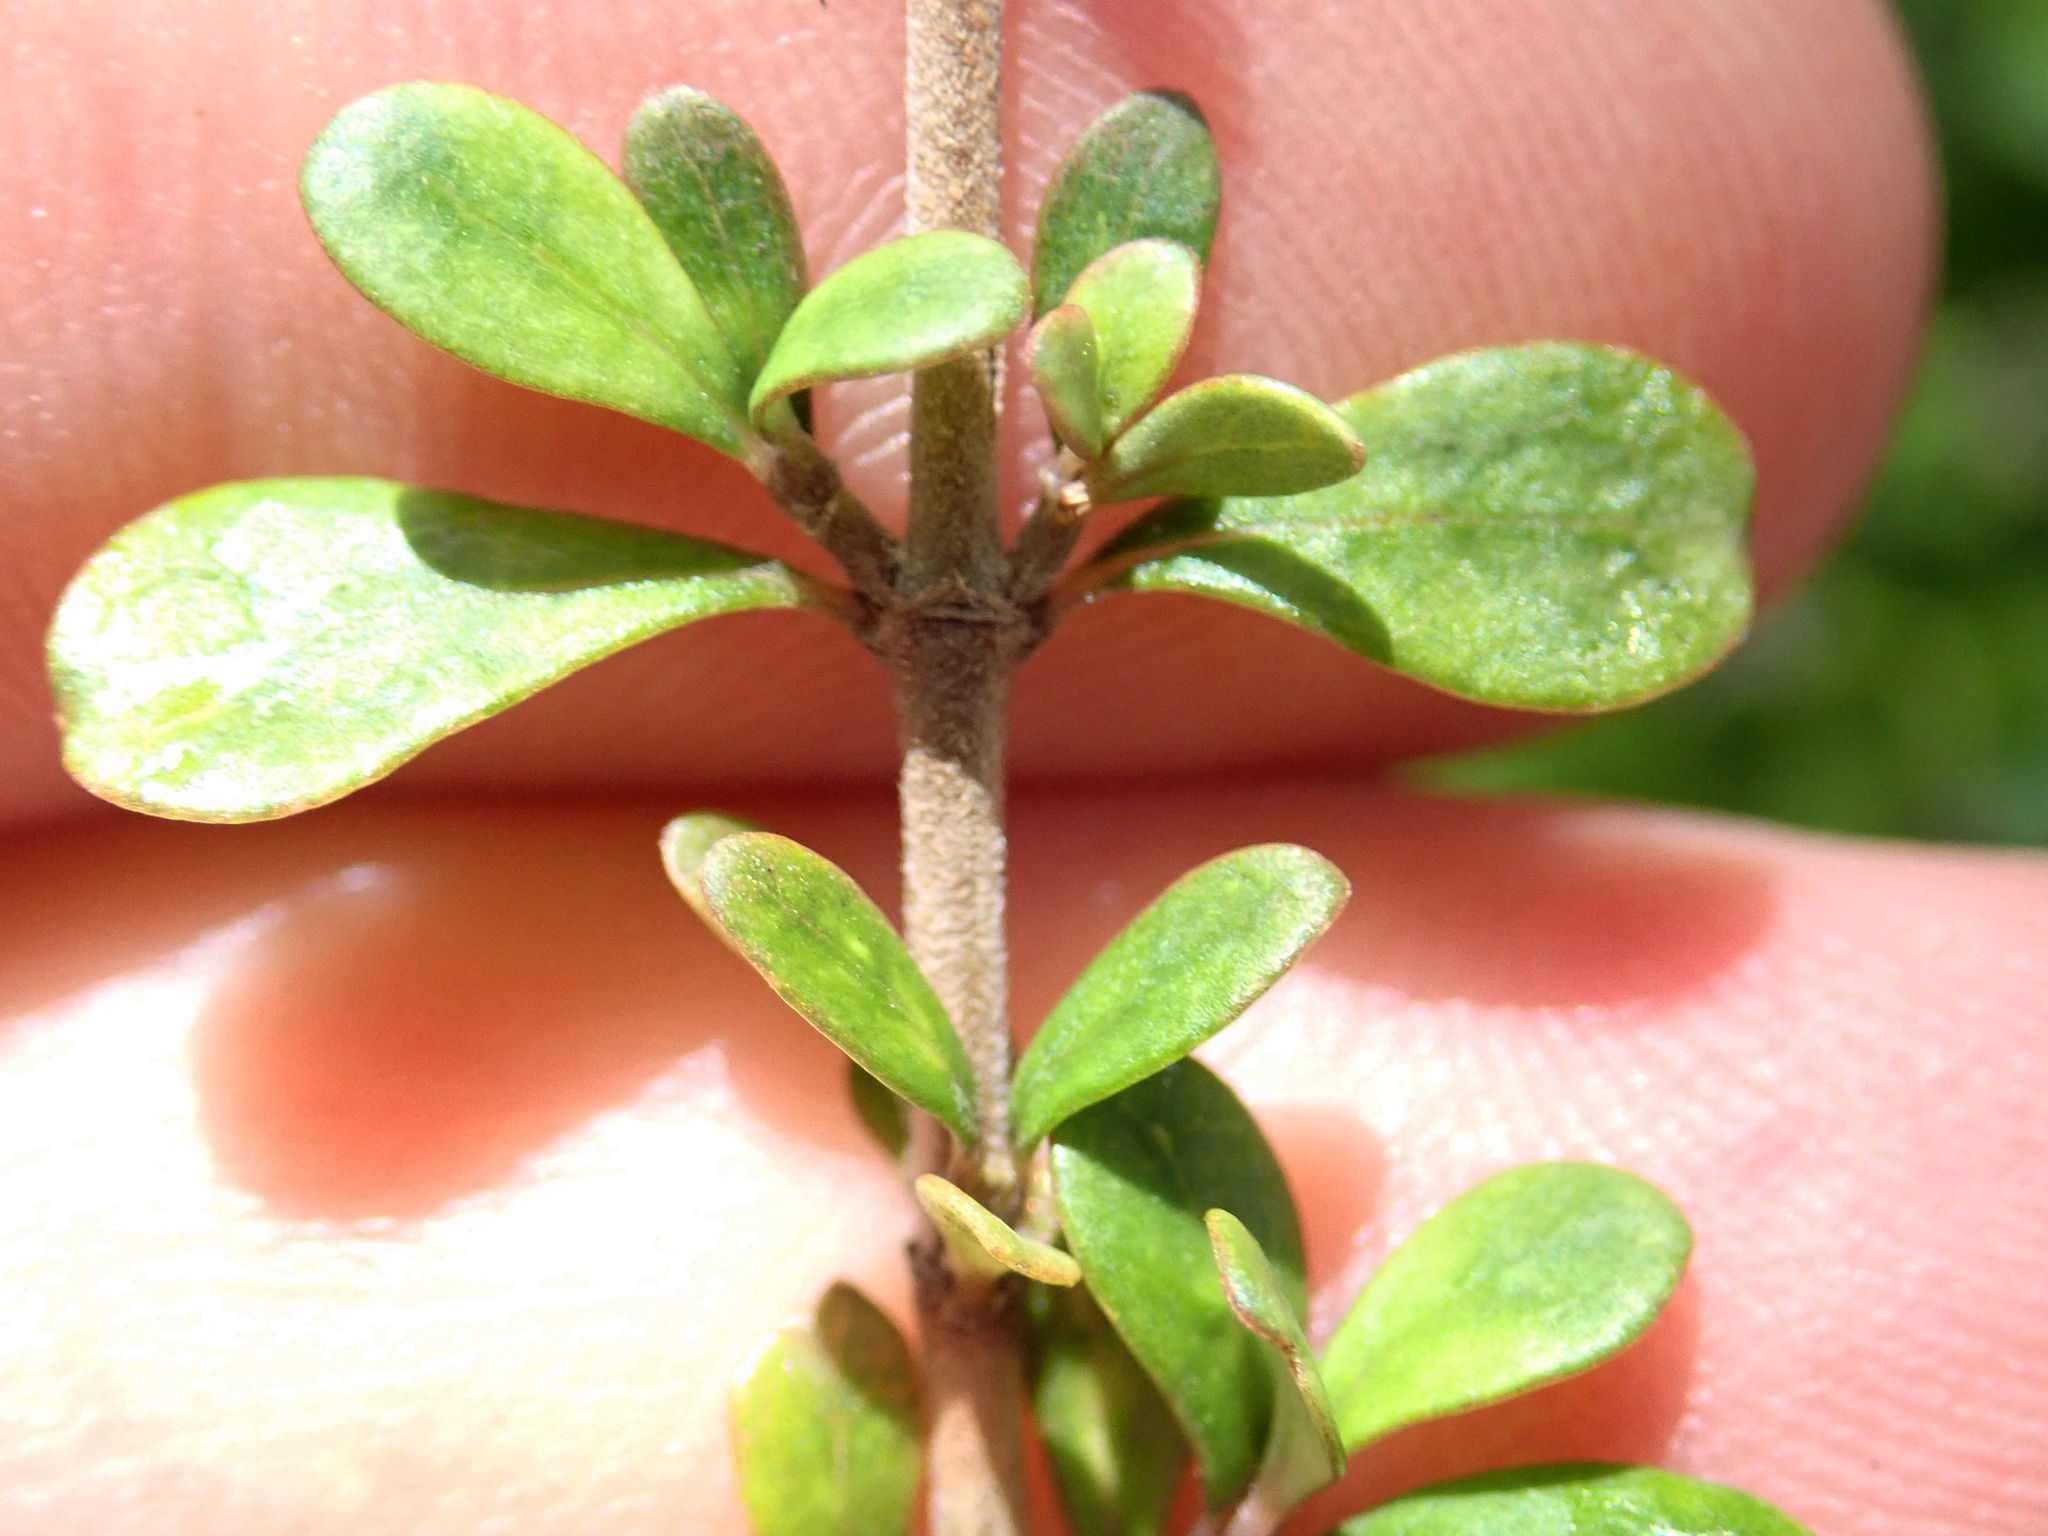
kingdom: Plantae
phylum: Tracheophyta
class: Magnoliopsida
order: Gentianales
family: Rubiaceae
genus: Coprosma
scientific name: Coprosma parviflora
